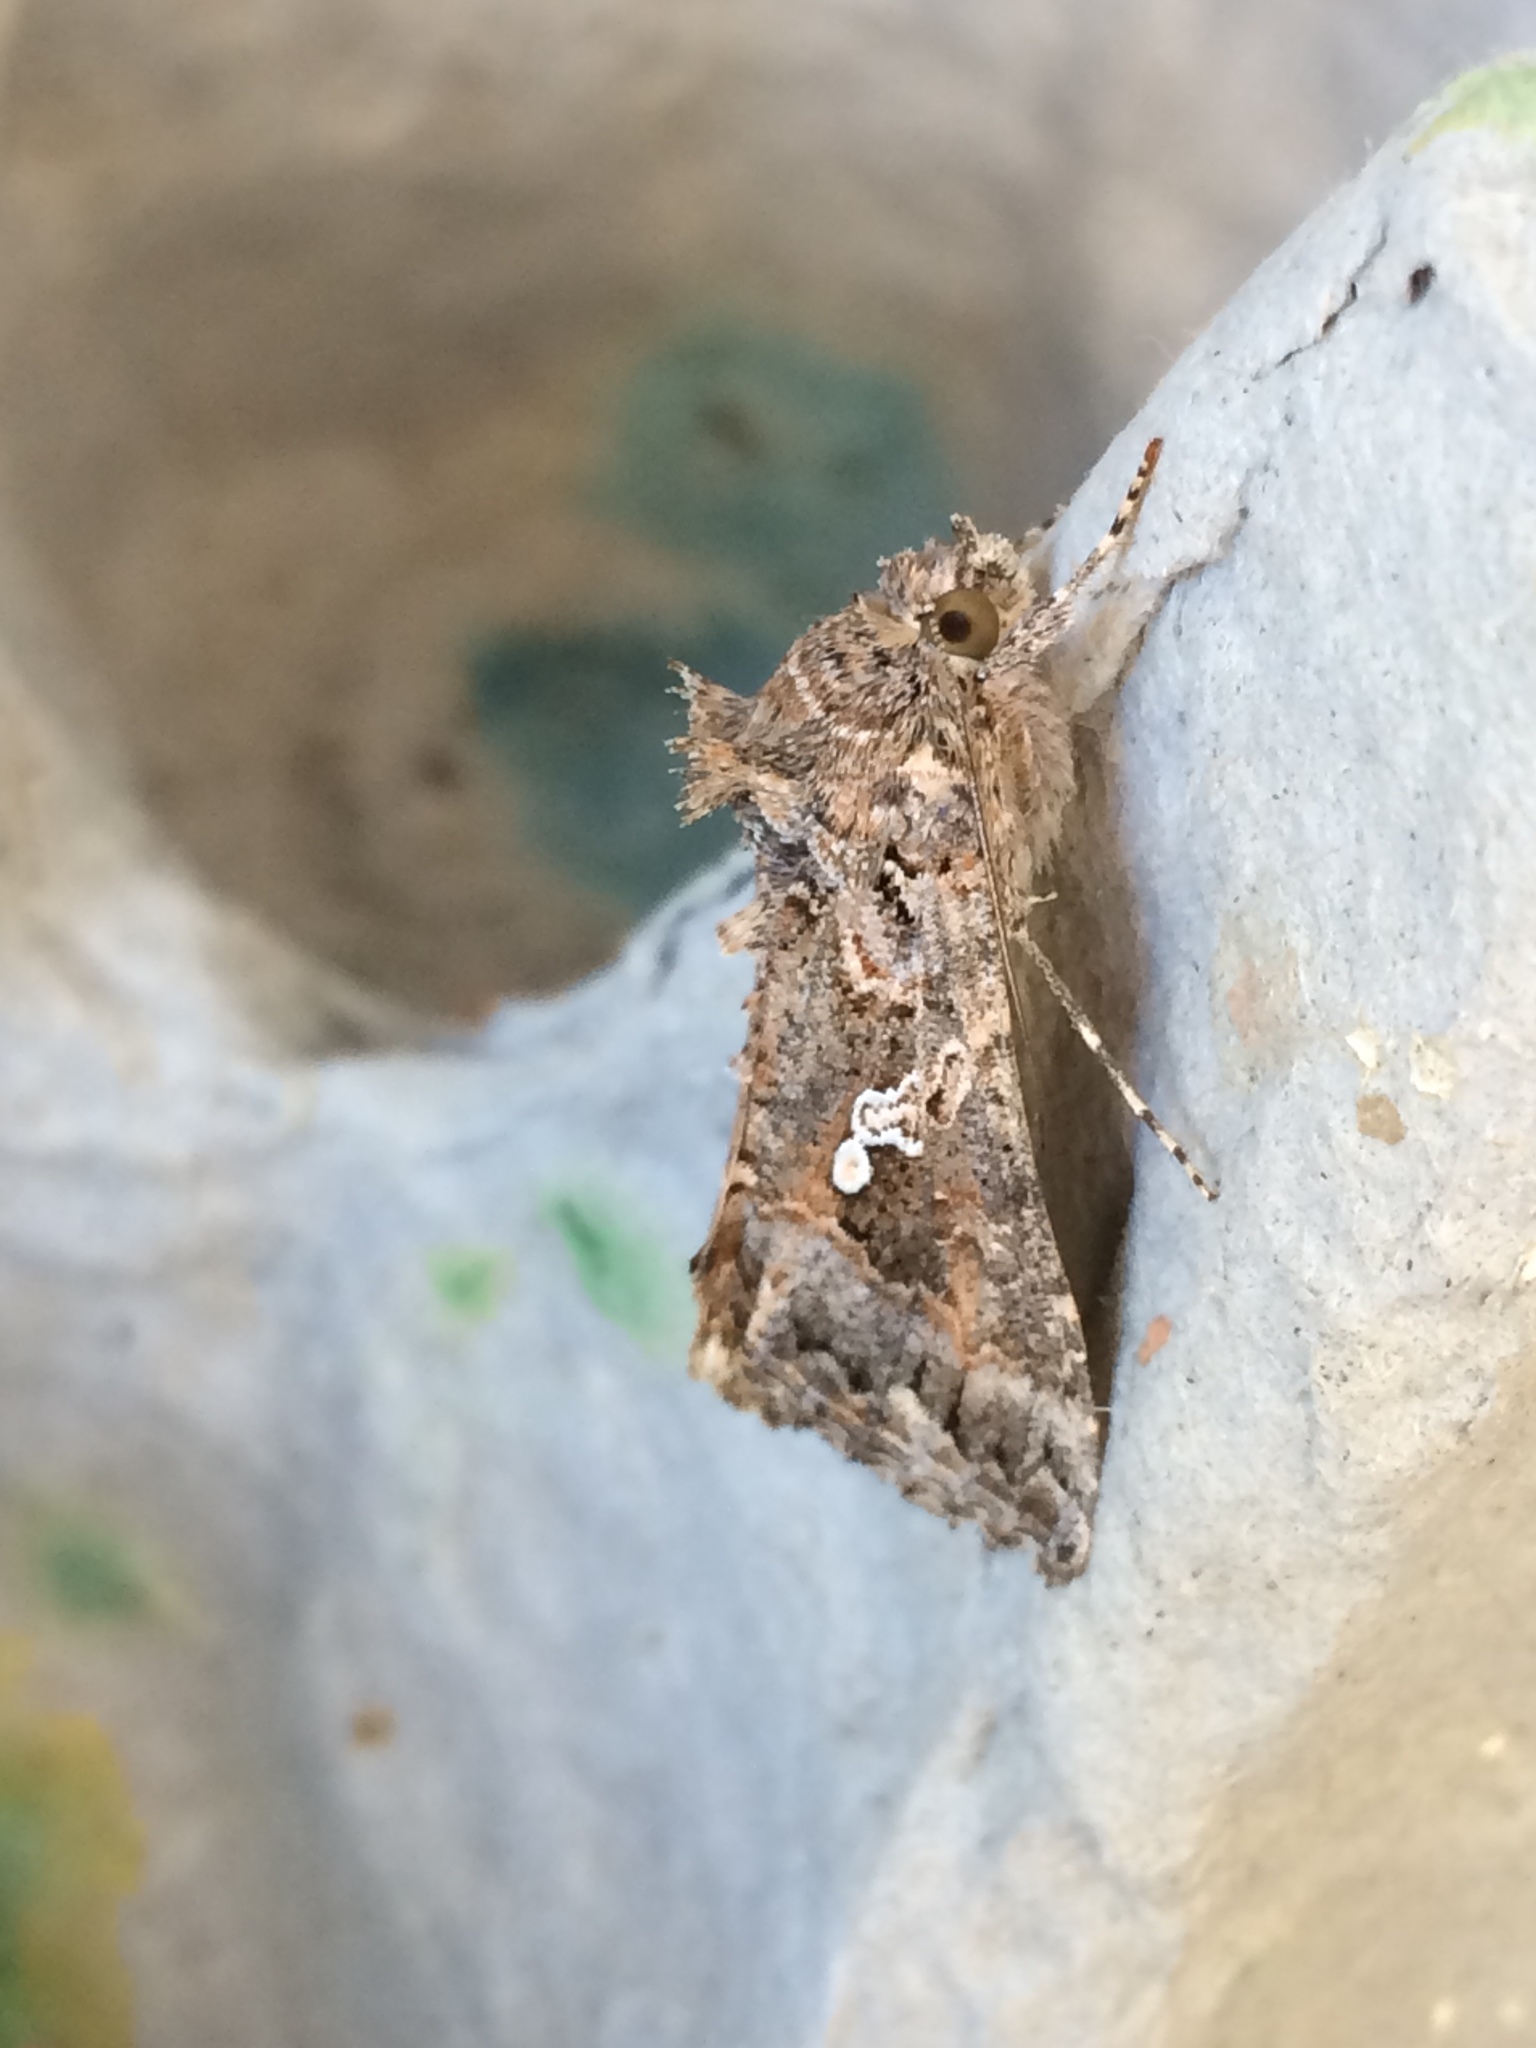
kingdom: Animalia
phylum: Arthropoda
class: Insecta
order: Lepidoptera
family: Noctuidae
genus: Trichoplusia
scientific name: Trichoplusia ni
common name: Ni moth
